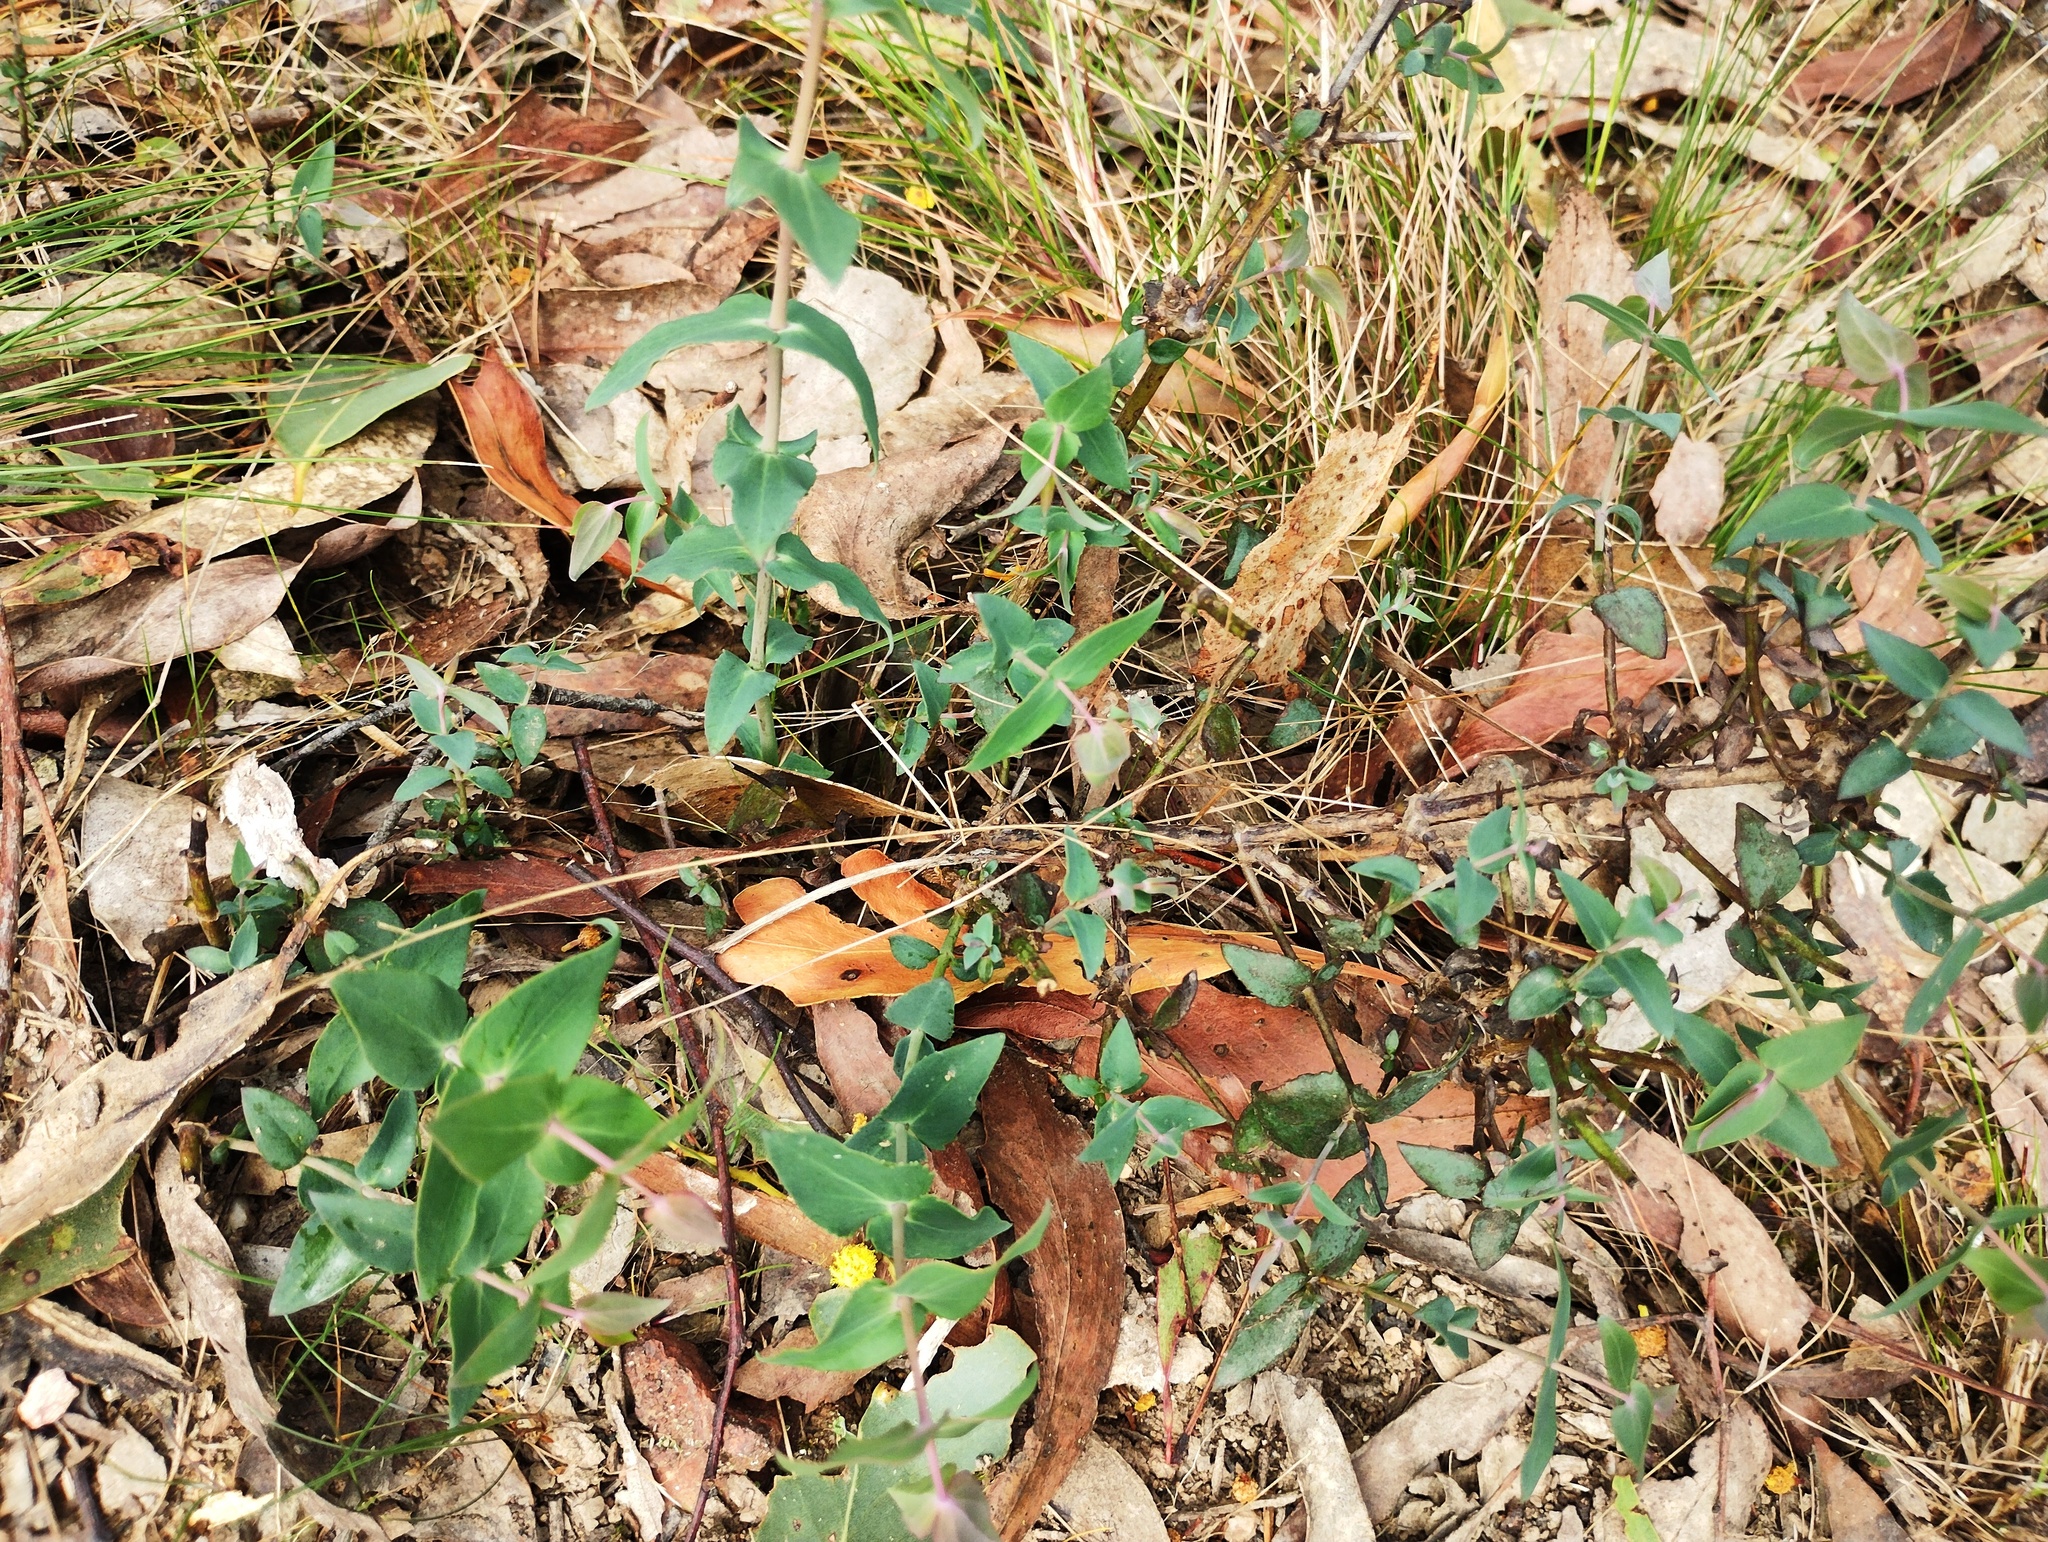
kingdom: Plantae
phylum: Tracheophyta
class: Magnoliopsida
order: Lamiales
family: Plantaginaceae
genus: Veronica
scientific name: Veronica perfoliata
